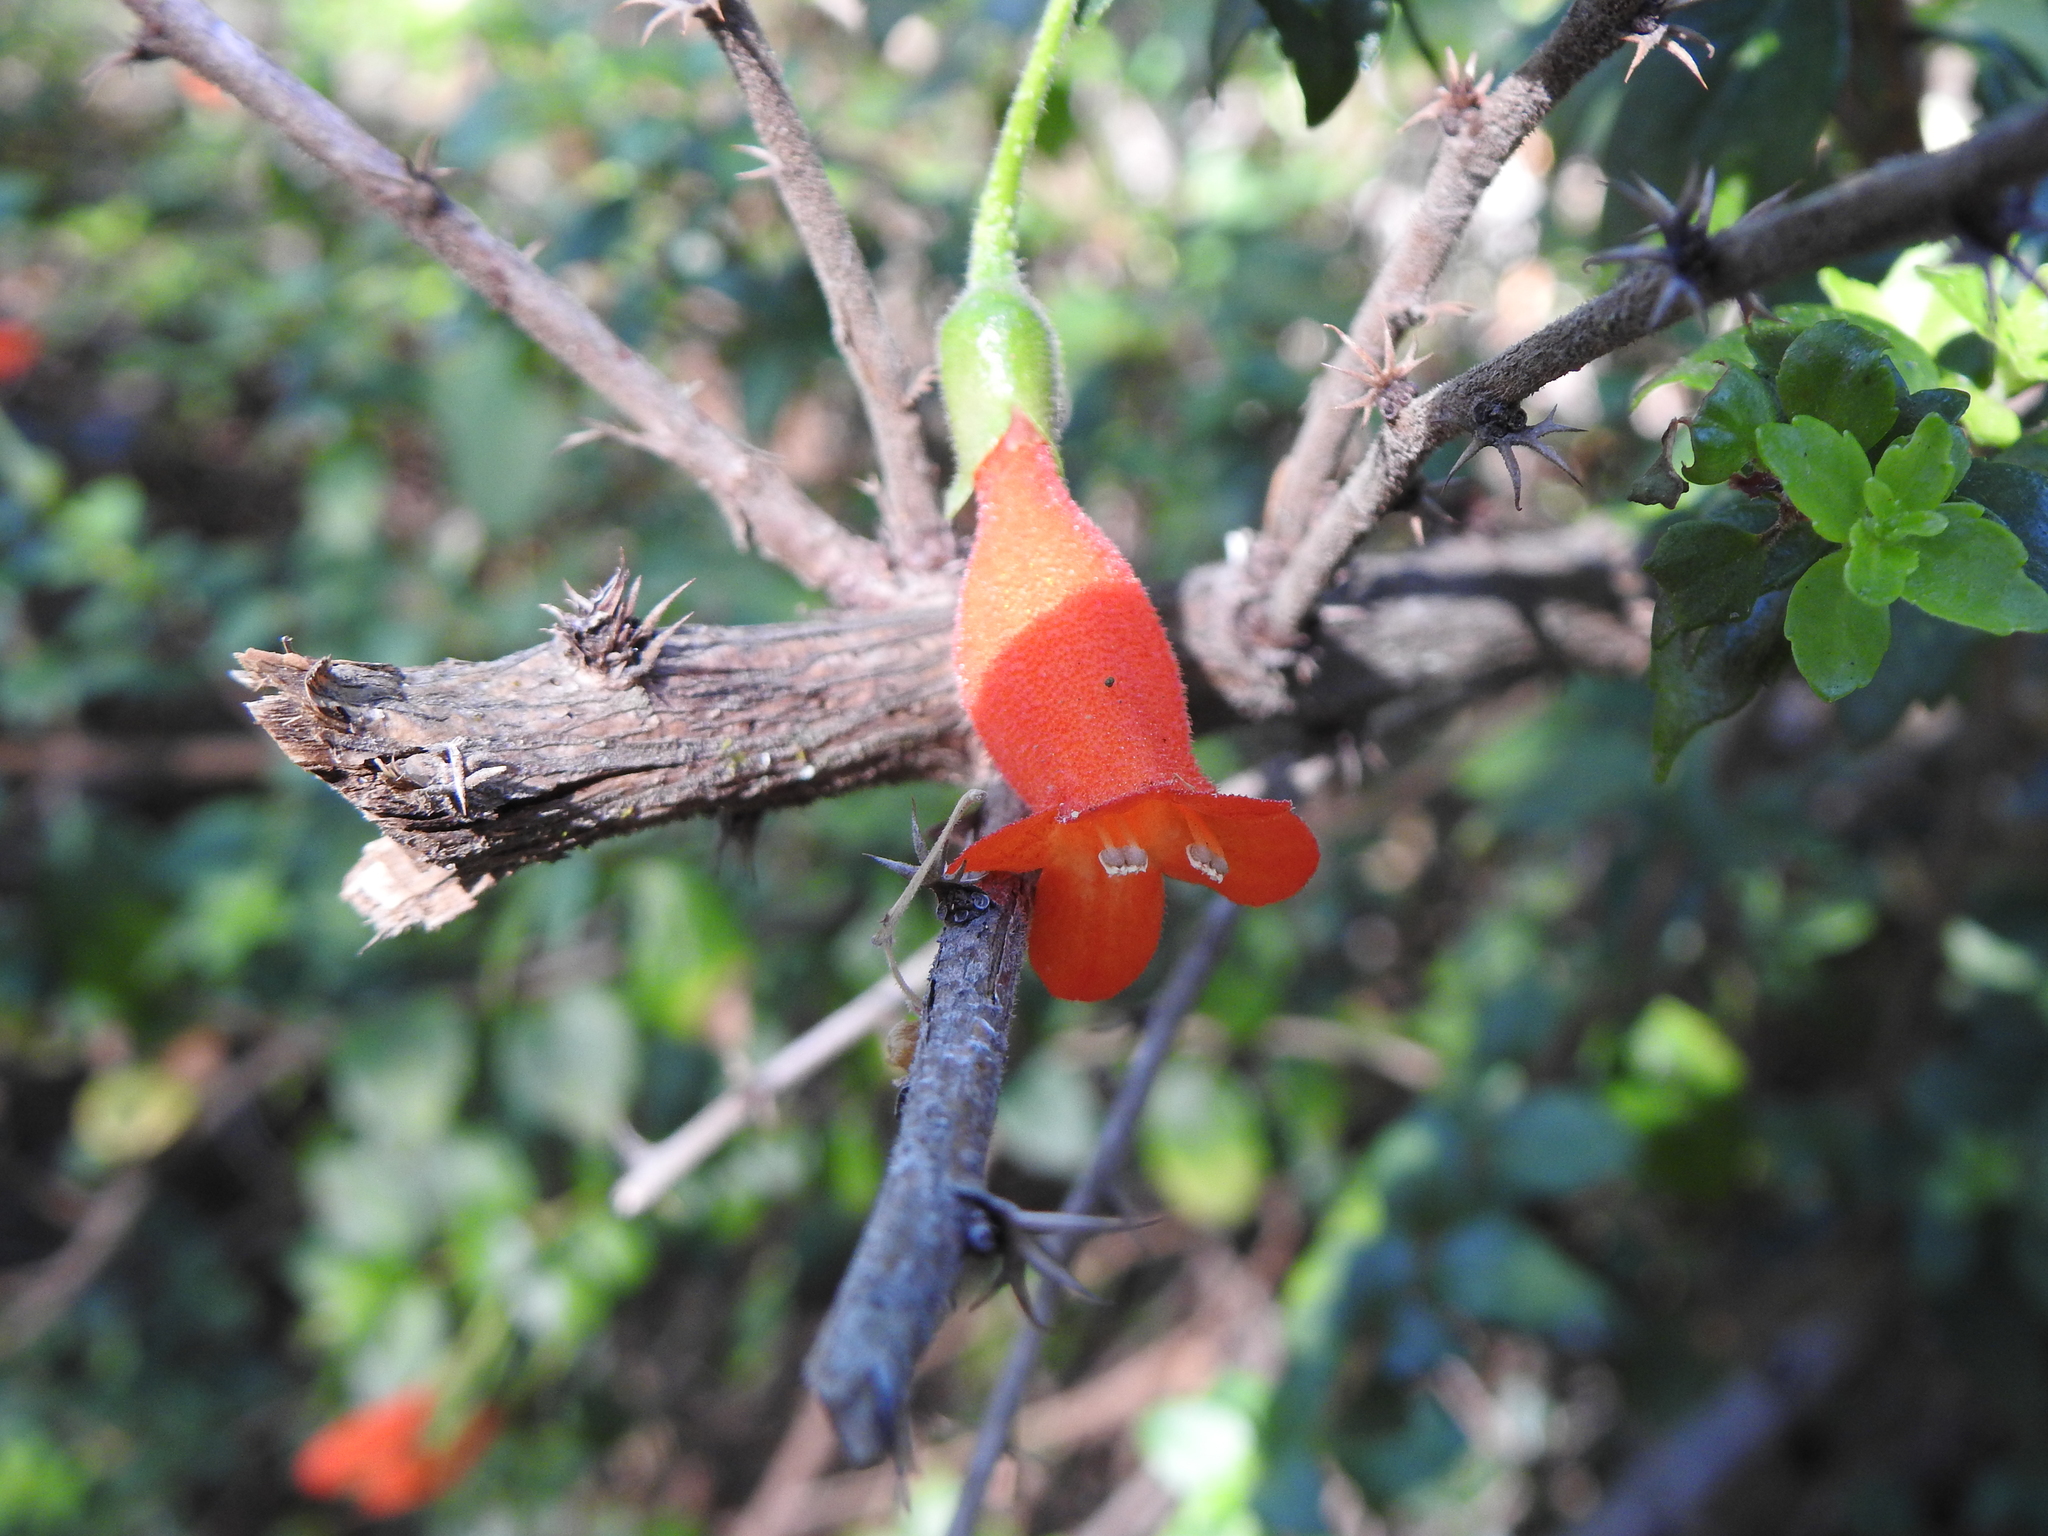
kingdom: Plantae
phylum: Tracheophyta
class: Magnoliopsida
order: Lamiales
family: Gesneriaceae
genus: Mitraria
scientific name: Mitraria coccinea
